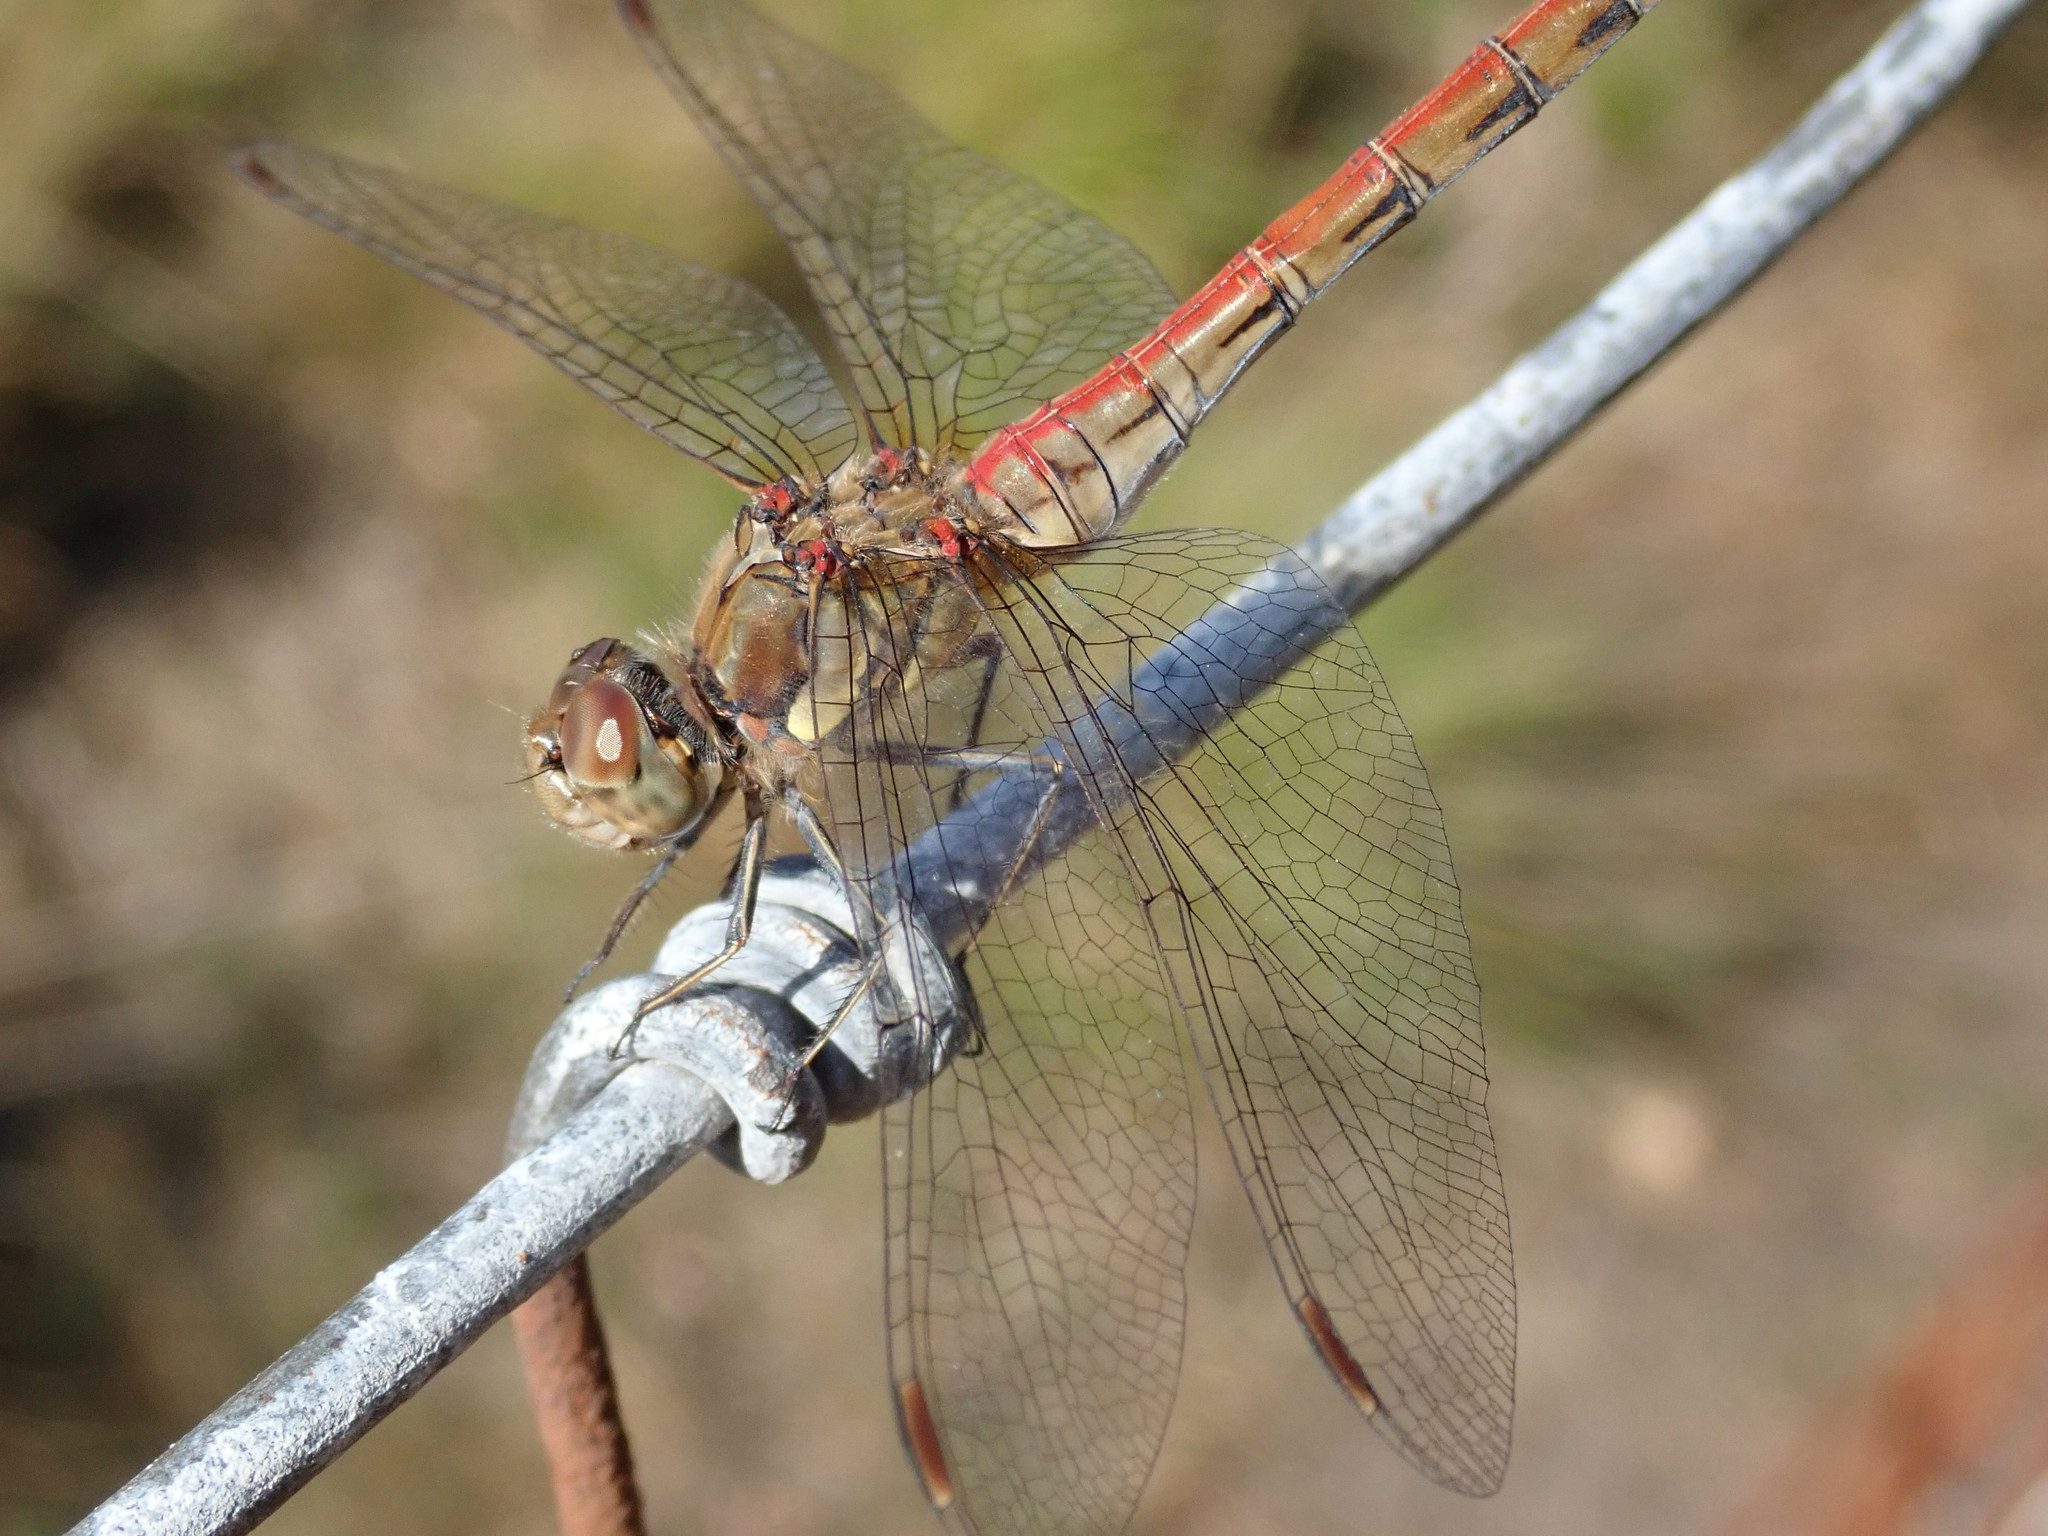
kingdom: Animalia
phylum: Arthropoda
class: Insecta
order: Odonata
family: Libellulidae
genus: Sympetrum
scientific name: Sympetrum striolatum
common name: Common darter
